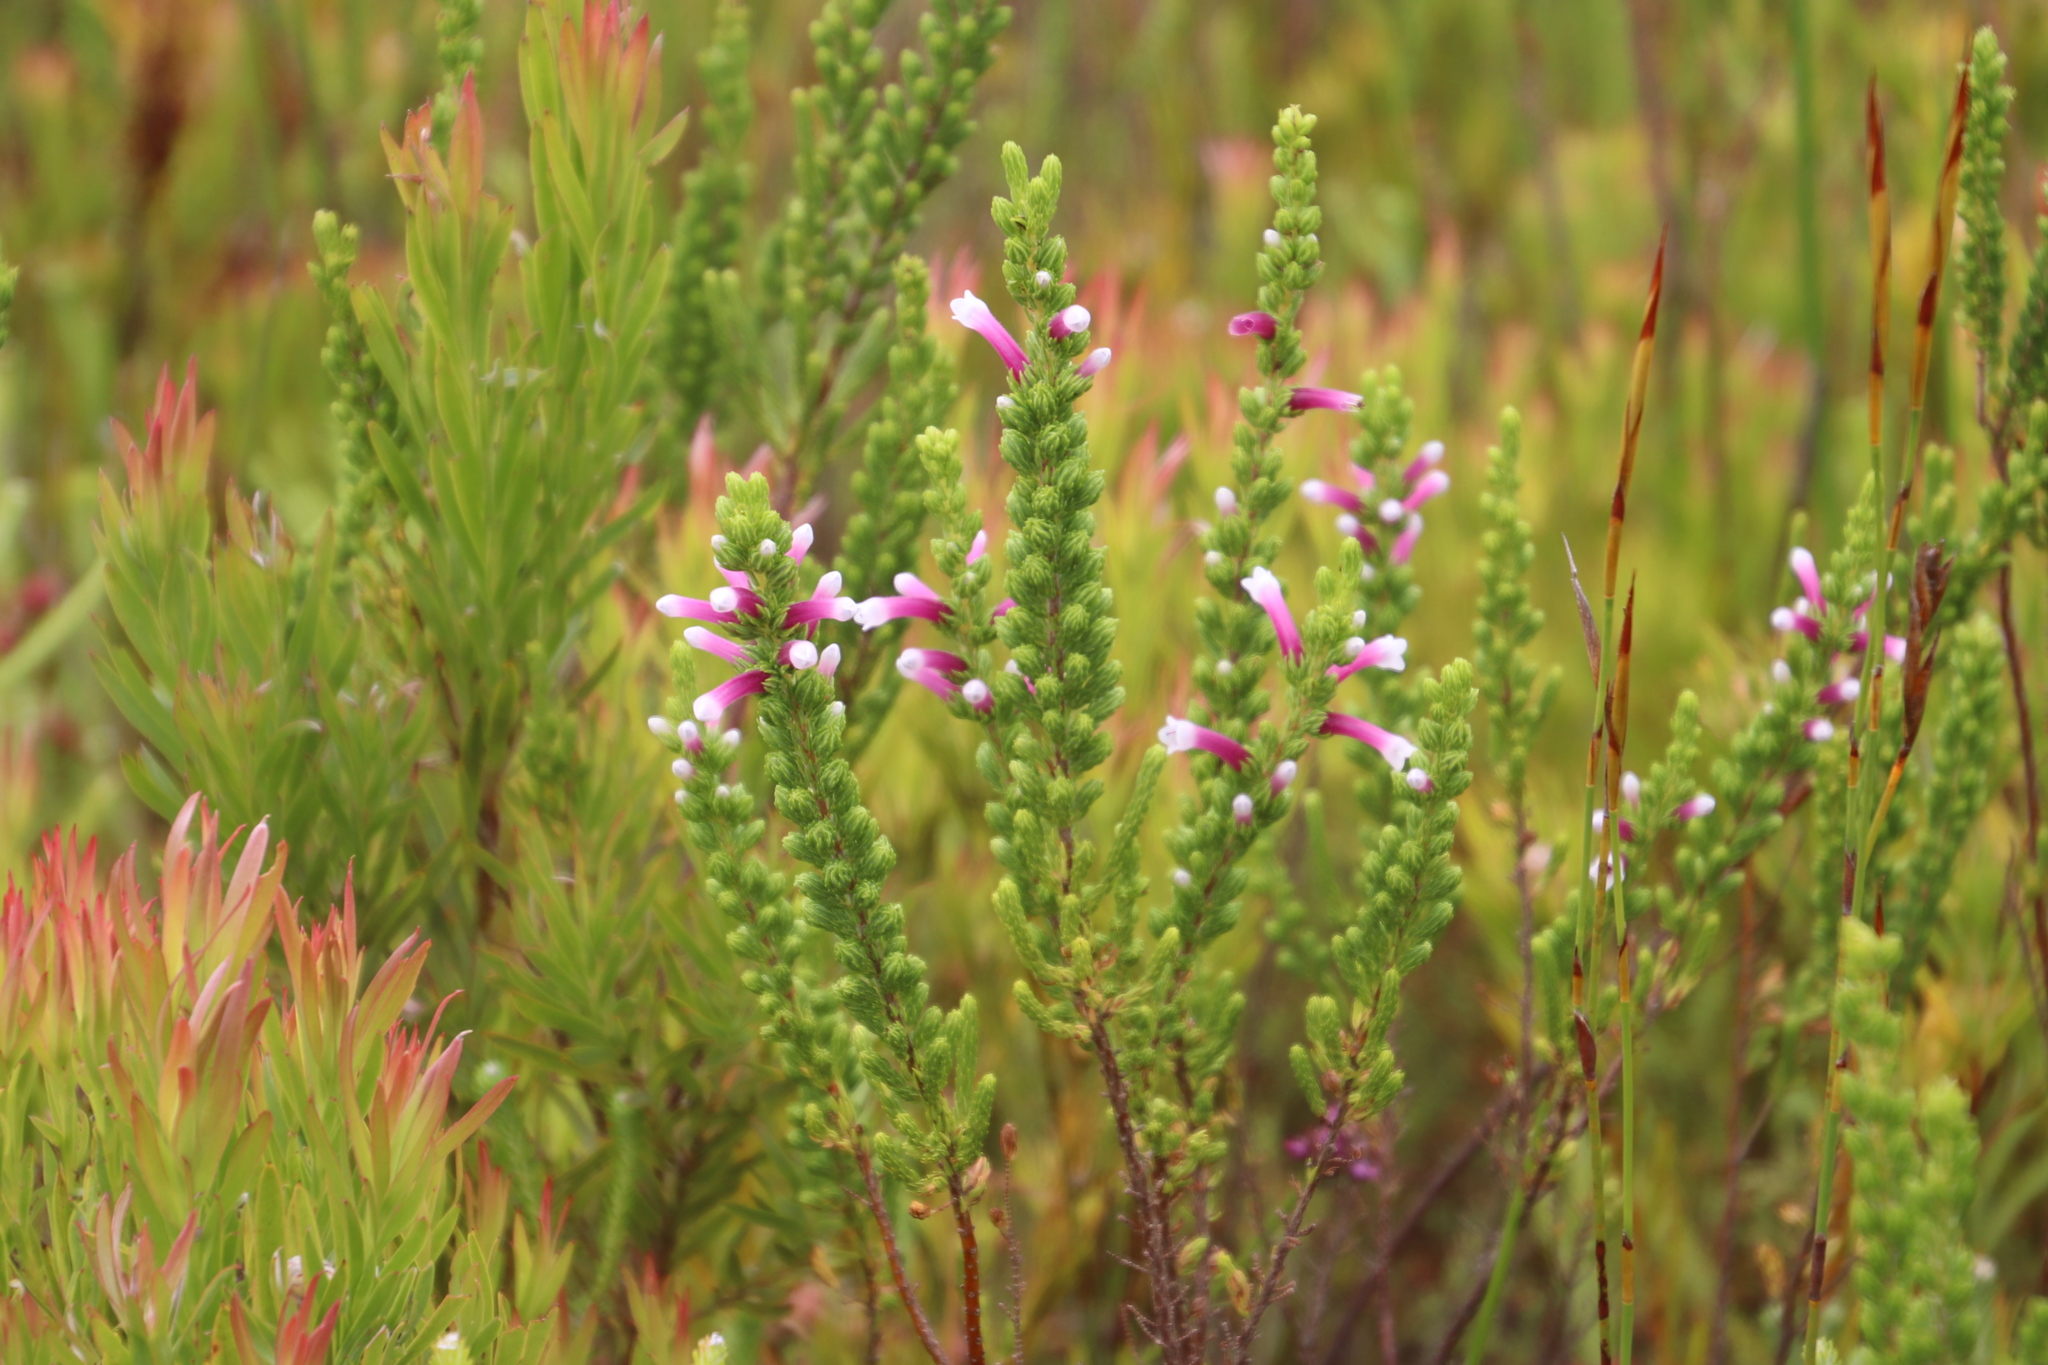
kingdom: Plantae
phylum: Tracheophyta
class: Magnoliopsida
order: Ericales
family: Ericaceae
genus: Erica
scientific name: Erica macowanii
